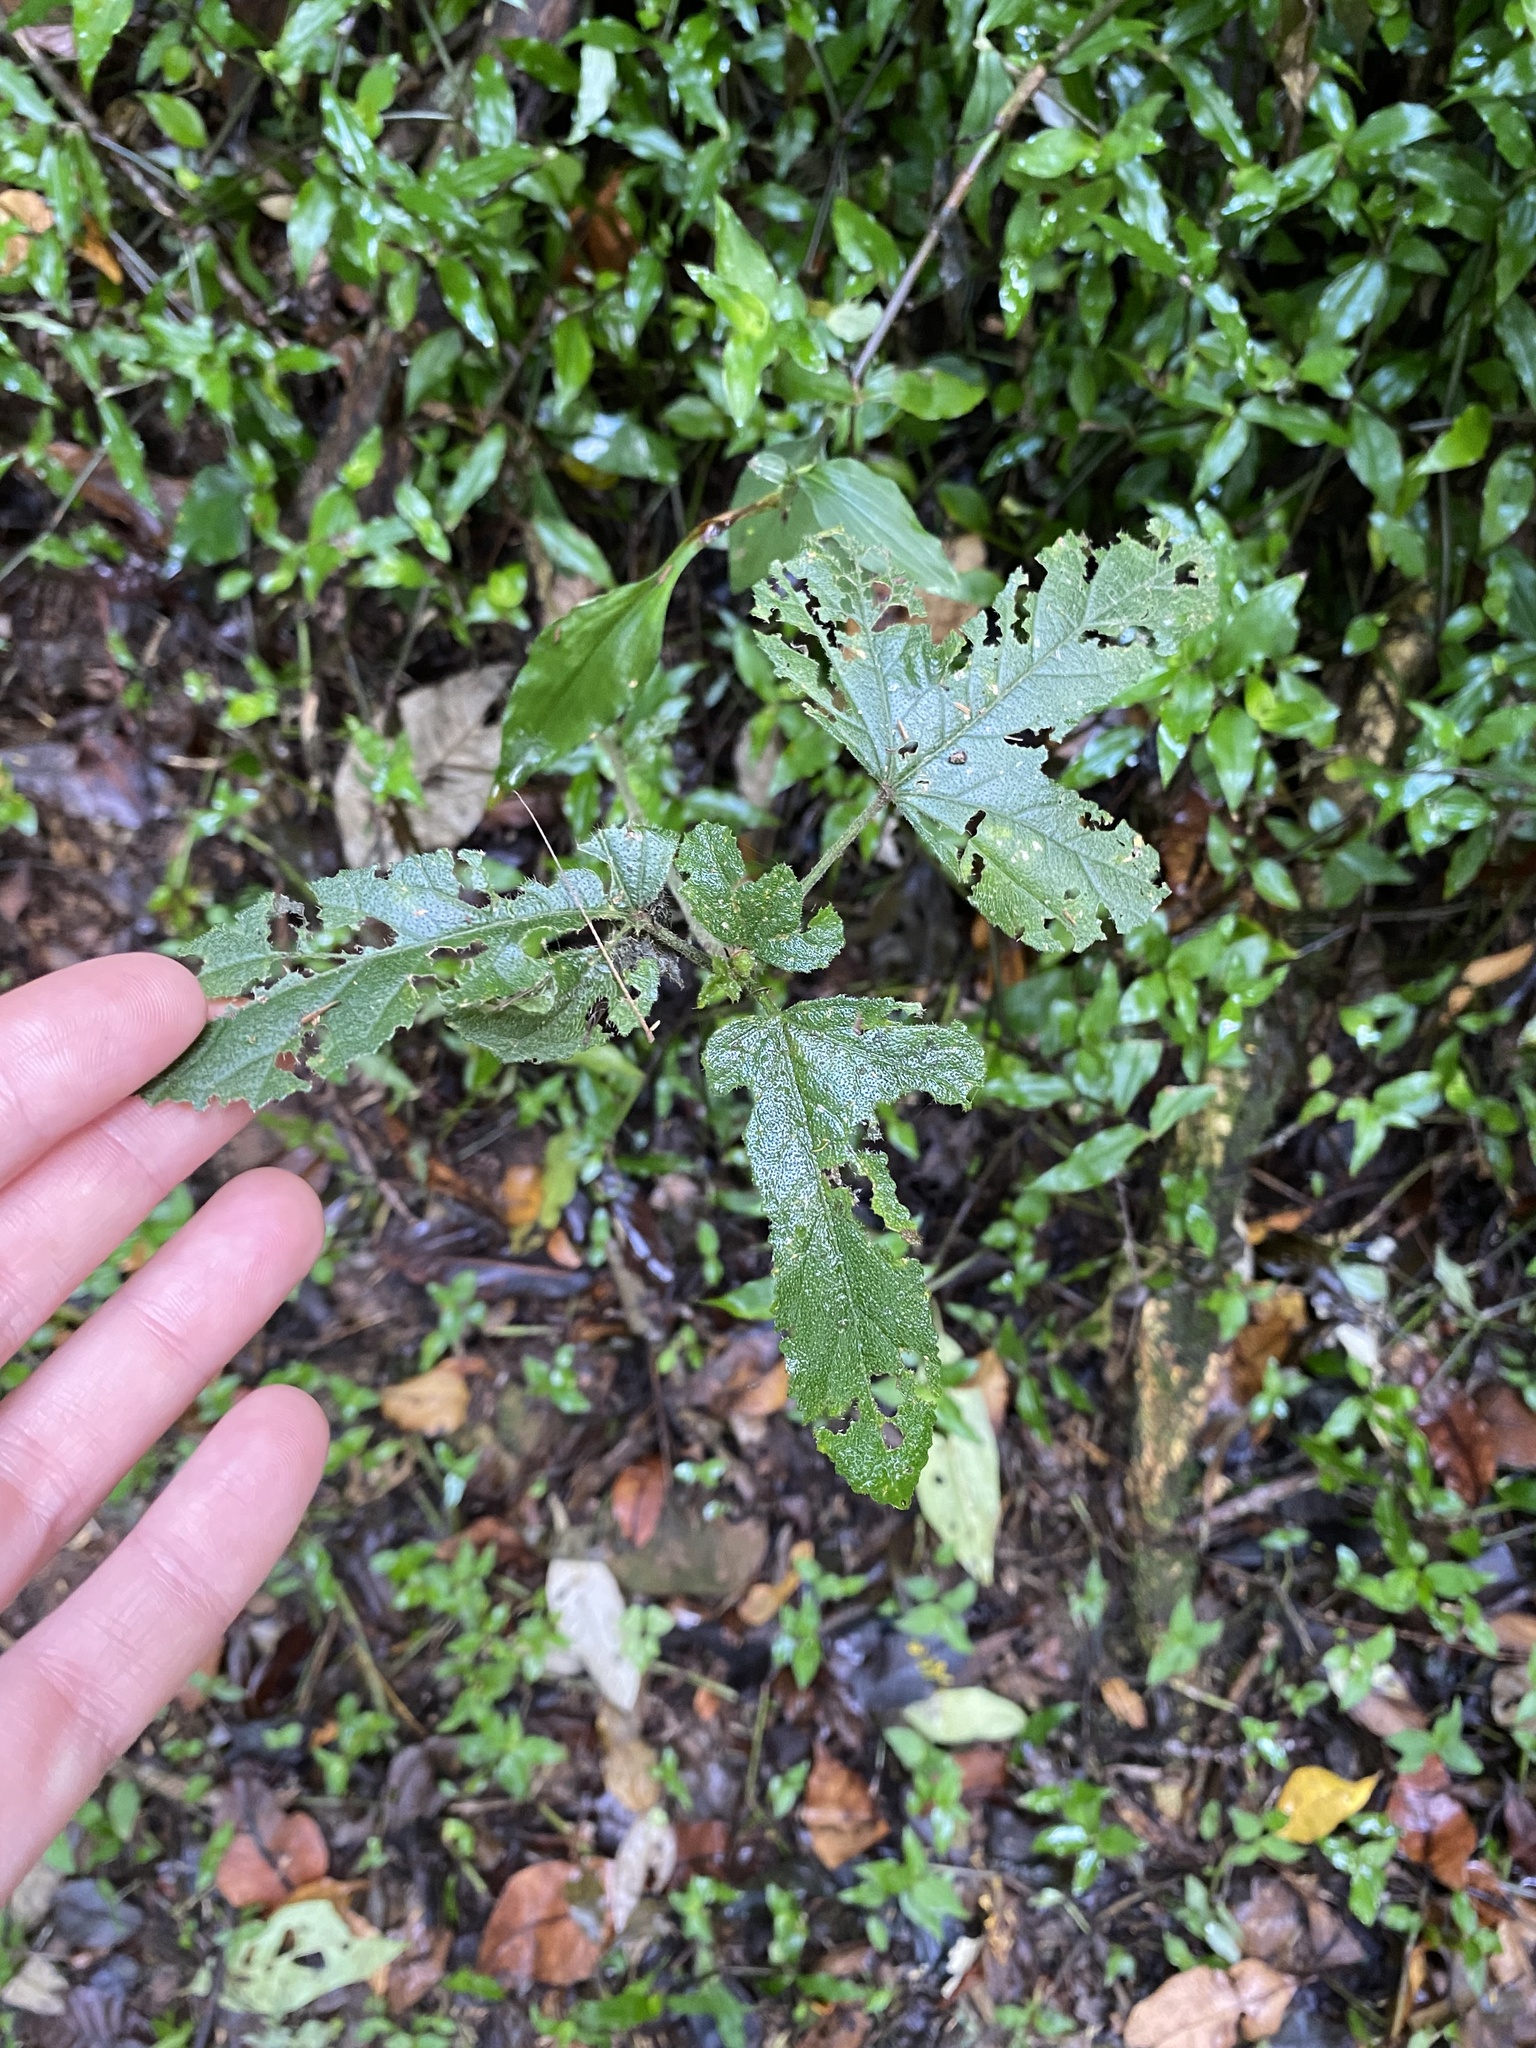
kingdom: Plantae
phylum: Tracheophyta
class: Magnoliopsida
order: Malvales
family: Malvaceae
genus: Hibiscus
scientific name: Hibiscus pedunculatus
